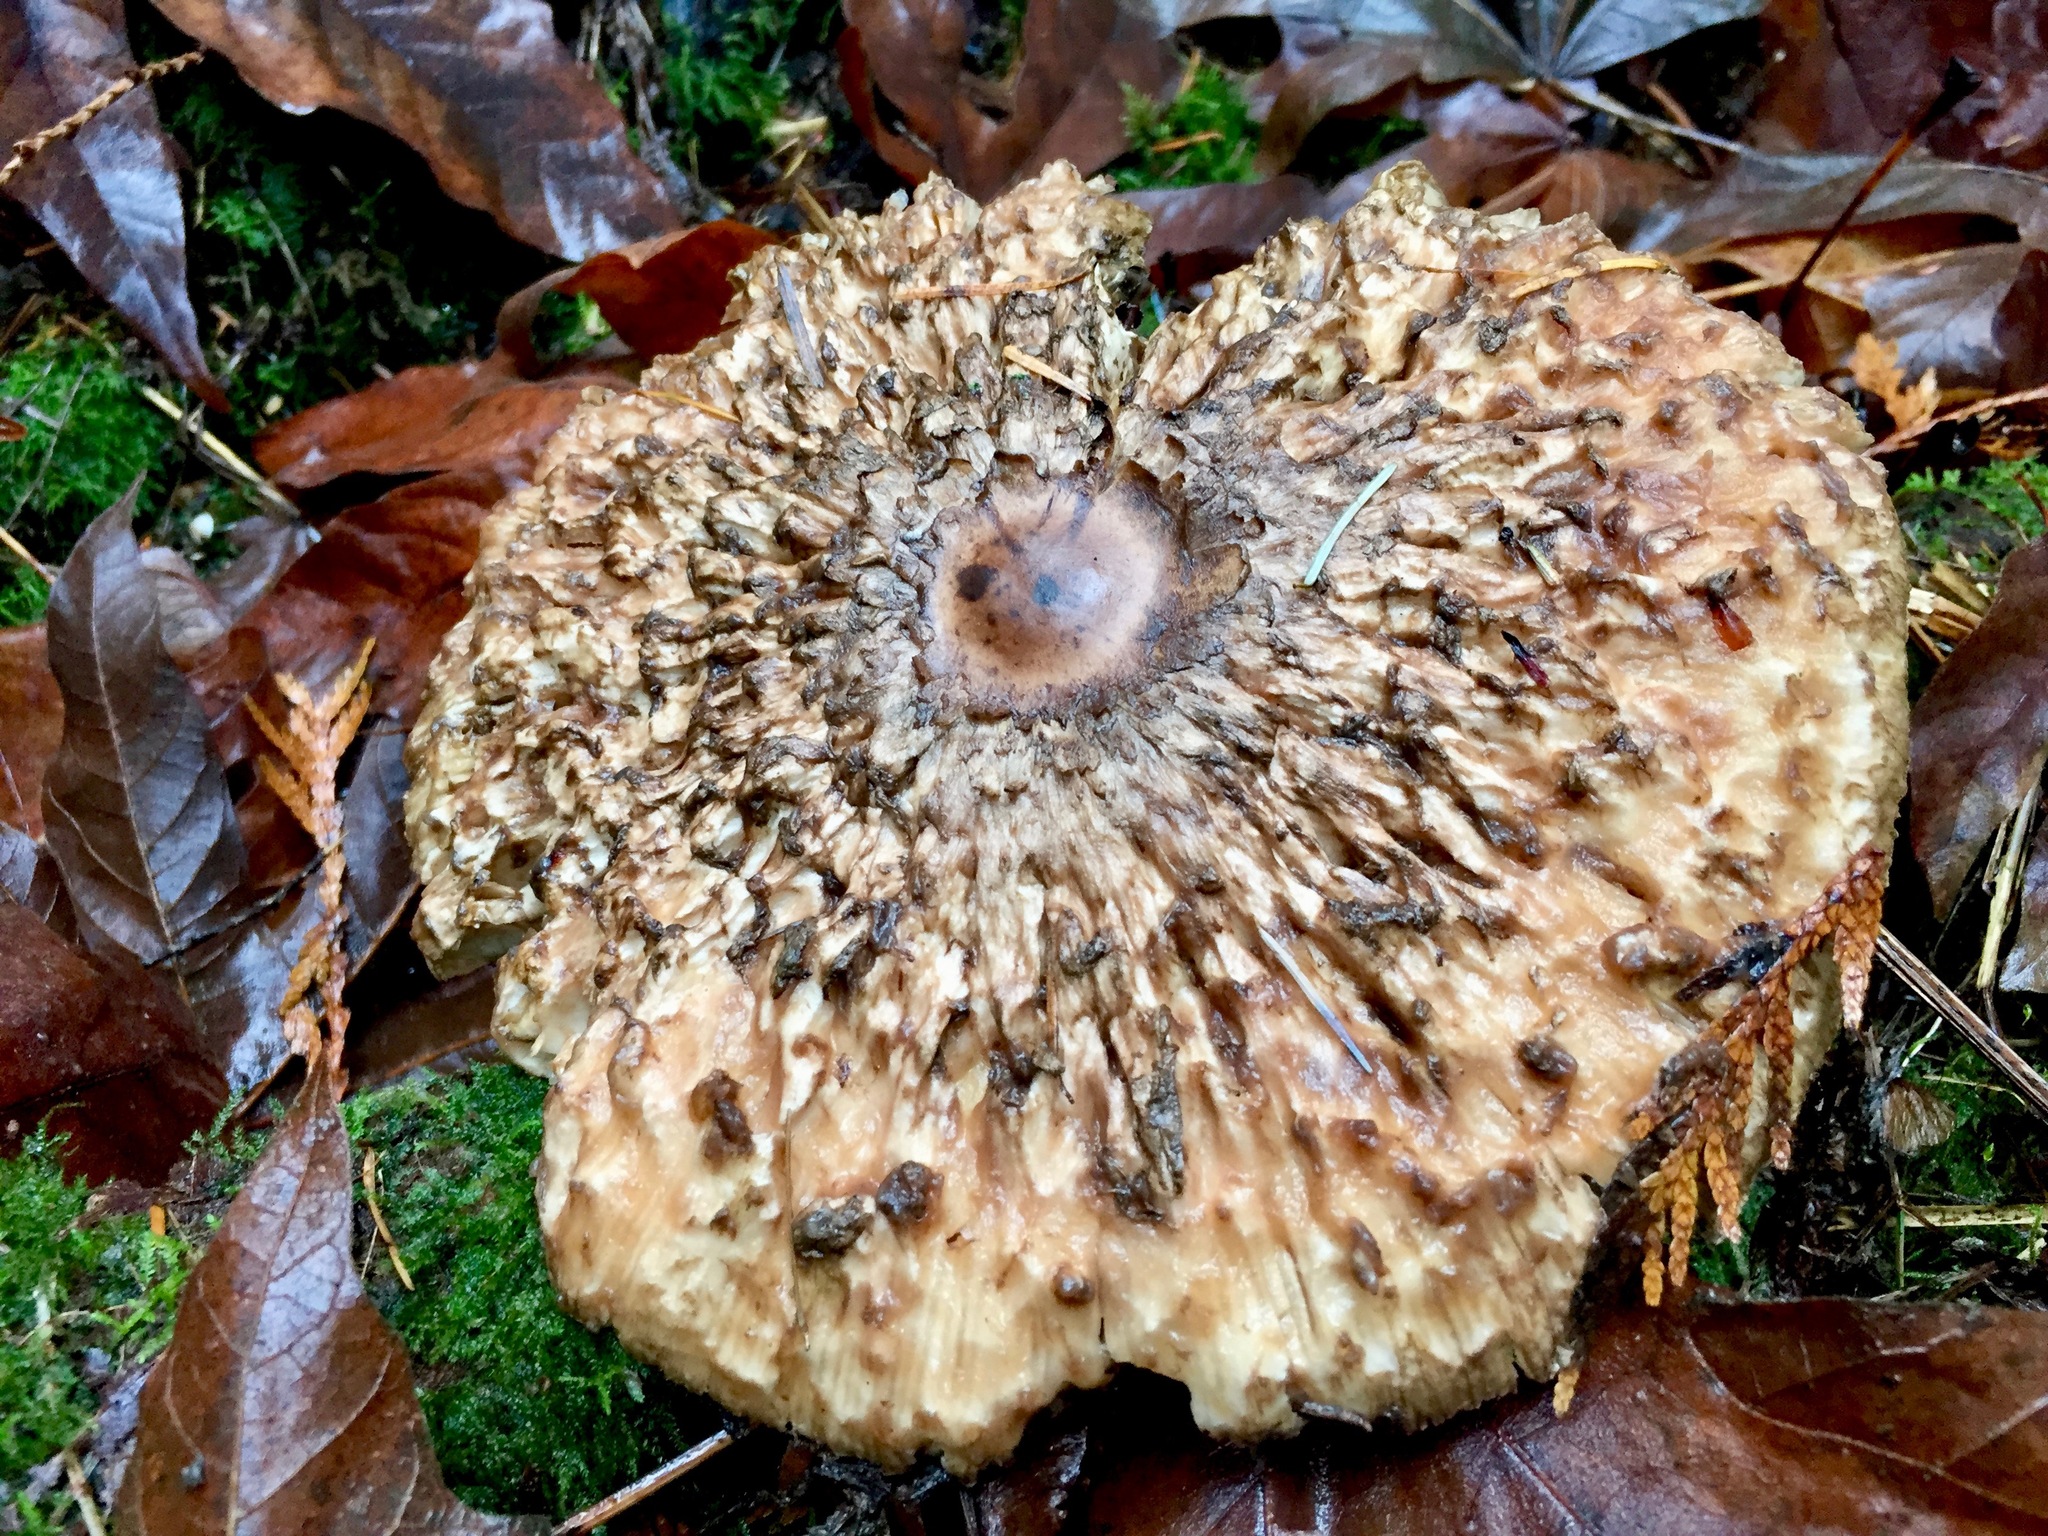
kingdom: Fungi
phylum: Basidiomycota
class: Agaricomycetes
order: Agaricales
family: Agaricaceae
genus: Chlorophyllum
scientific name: Chlorophyllum olivieri
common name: Conifer parasol
